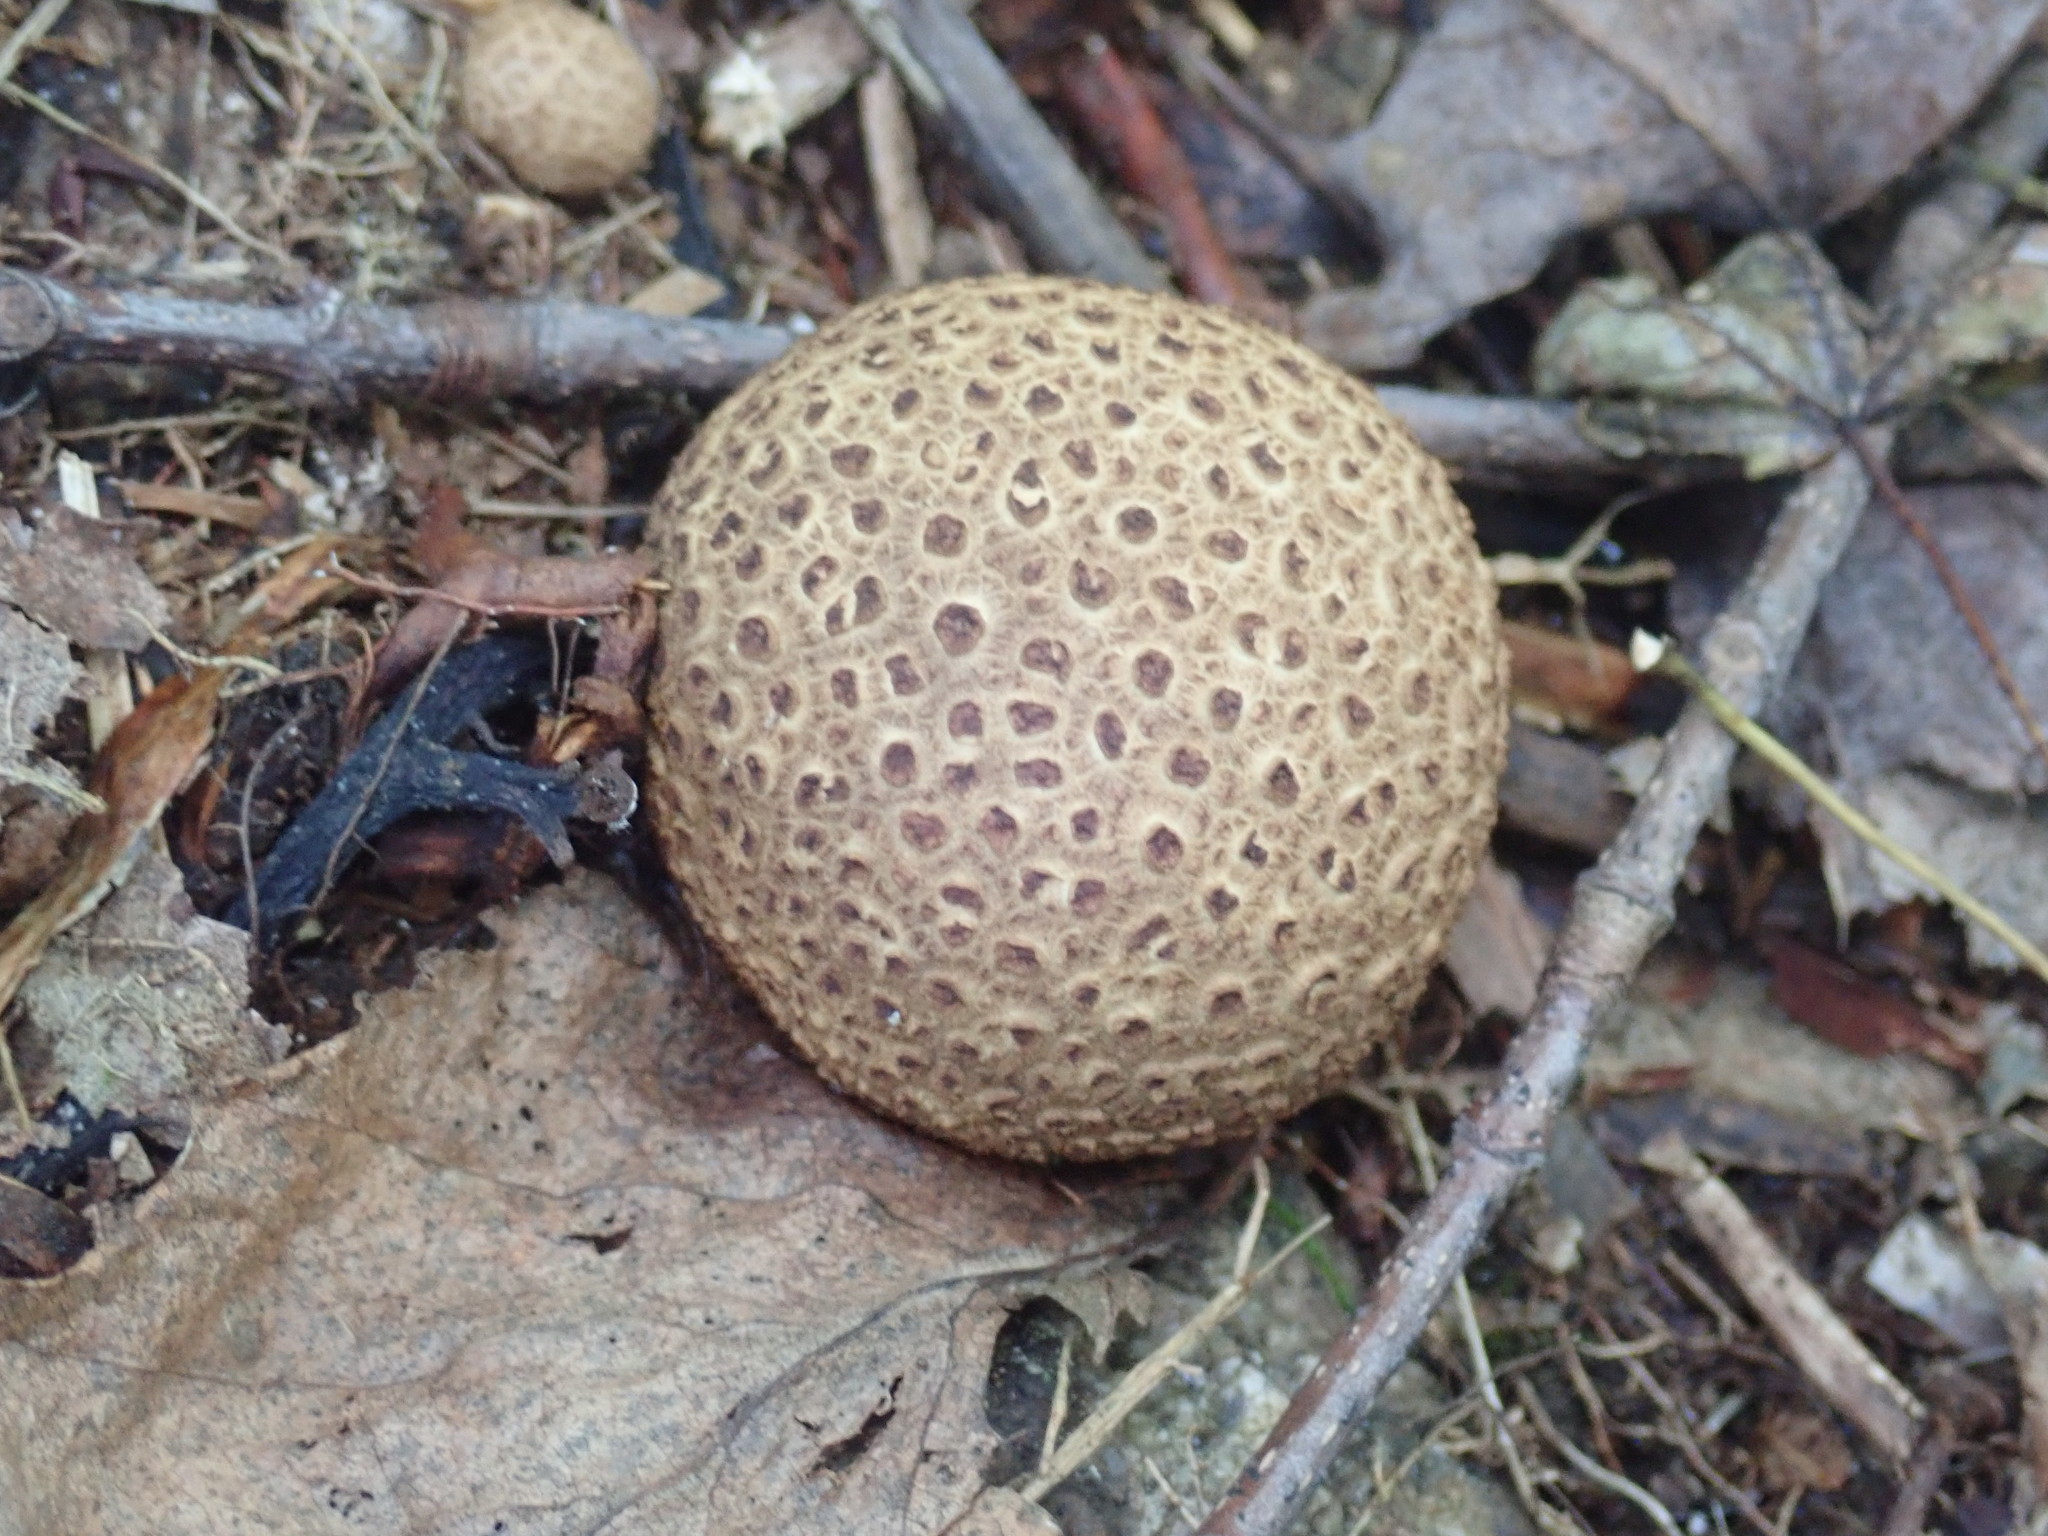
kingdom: Fungi
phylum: Basidiomycota
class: Agaricomycetes
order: Boletales
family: Sclerodermataceae
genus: Scleroderma
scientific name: Scleroderma citrinum
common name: Common earthball
